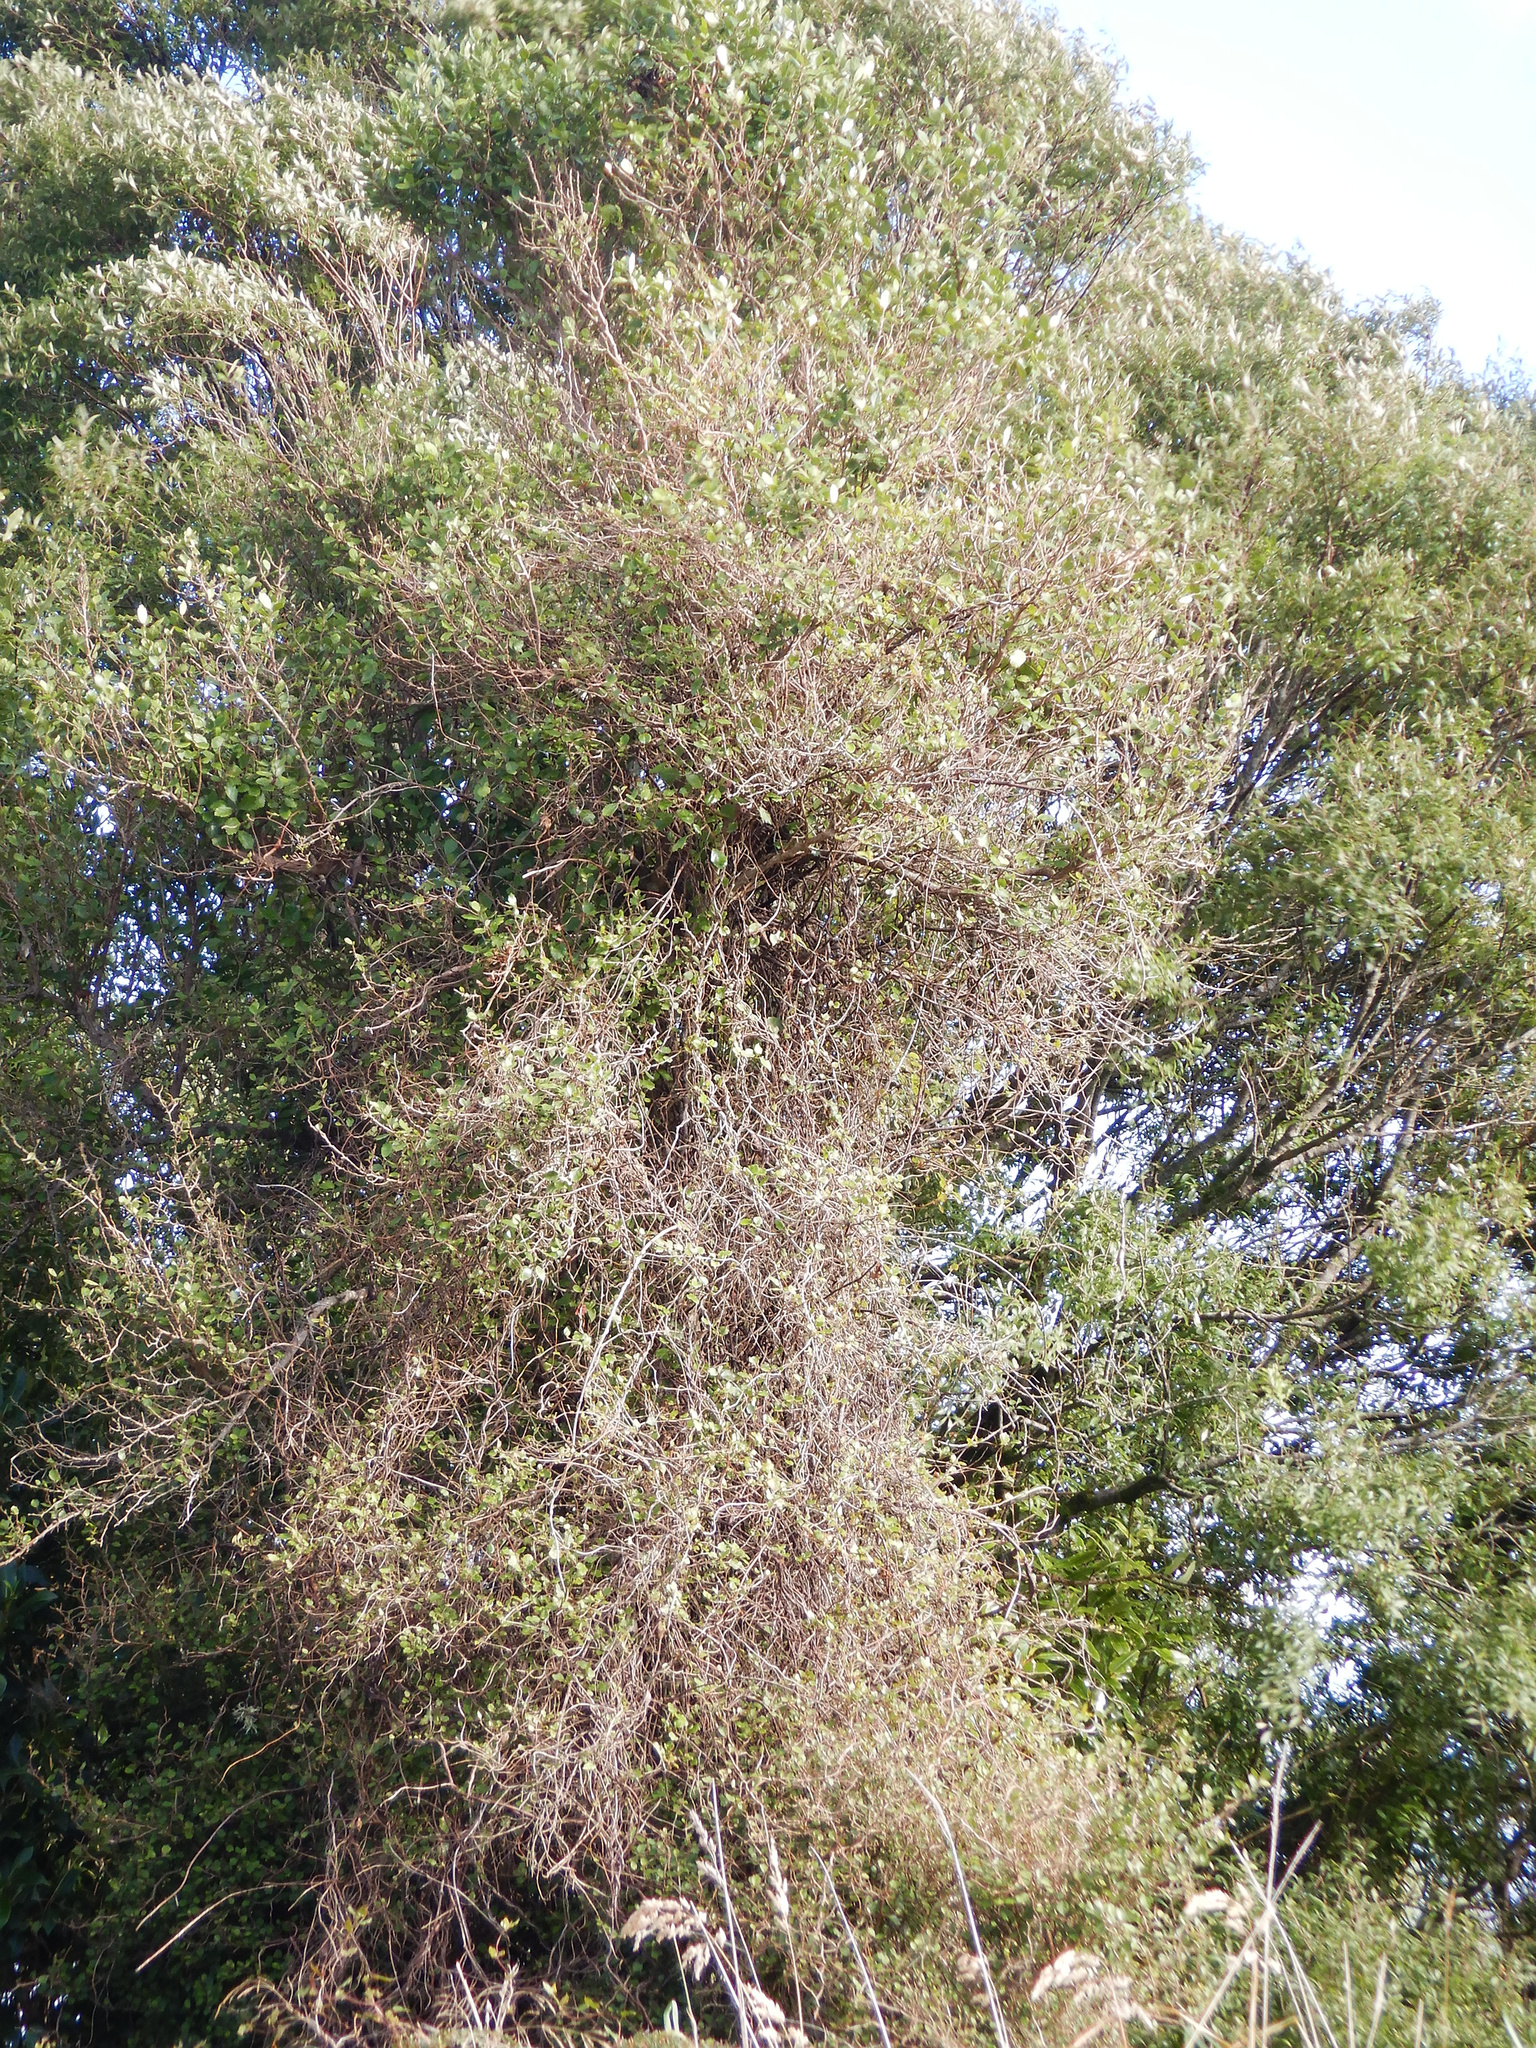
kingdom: Plantae
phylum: Tracheophyta
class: Magnoliopsida
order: Apiales
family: Pennantiaceae
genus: Pennantia
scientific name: Pennantia corymbosa
